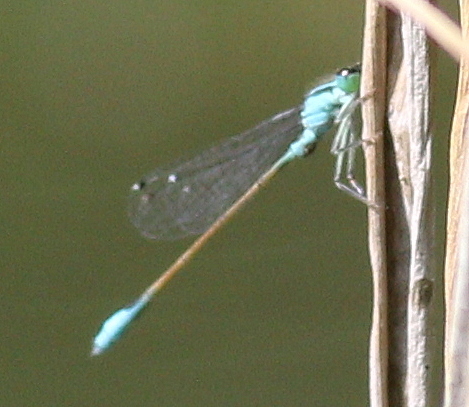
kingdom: Animalia
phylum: Arthropoda
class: Insecta
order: Odonata
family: Coenagrionidae
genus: Ischnura
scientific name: Ischnura elegans
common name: Blue-tailed damselfly
